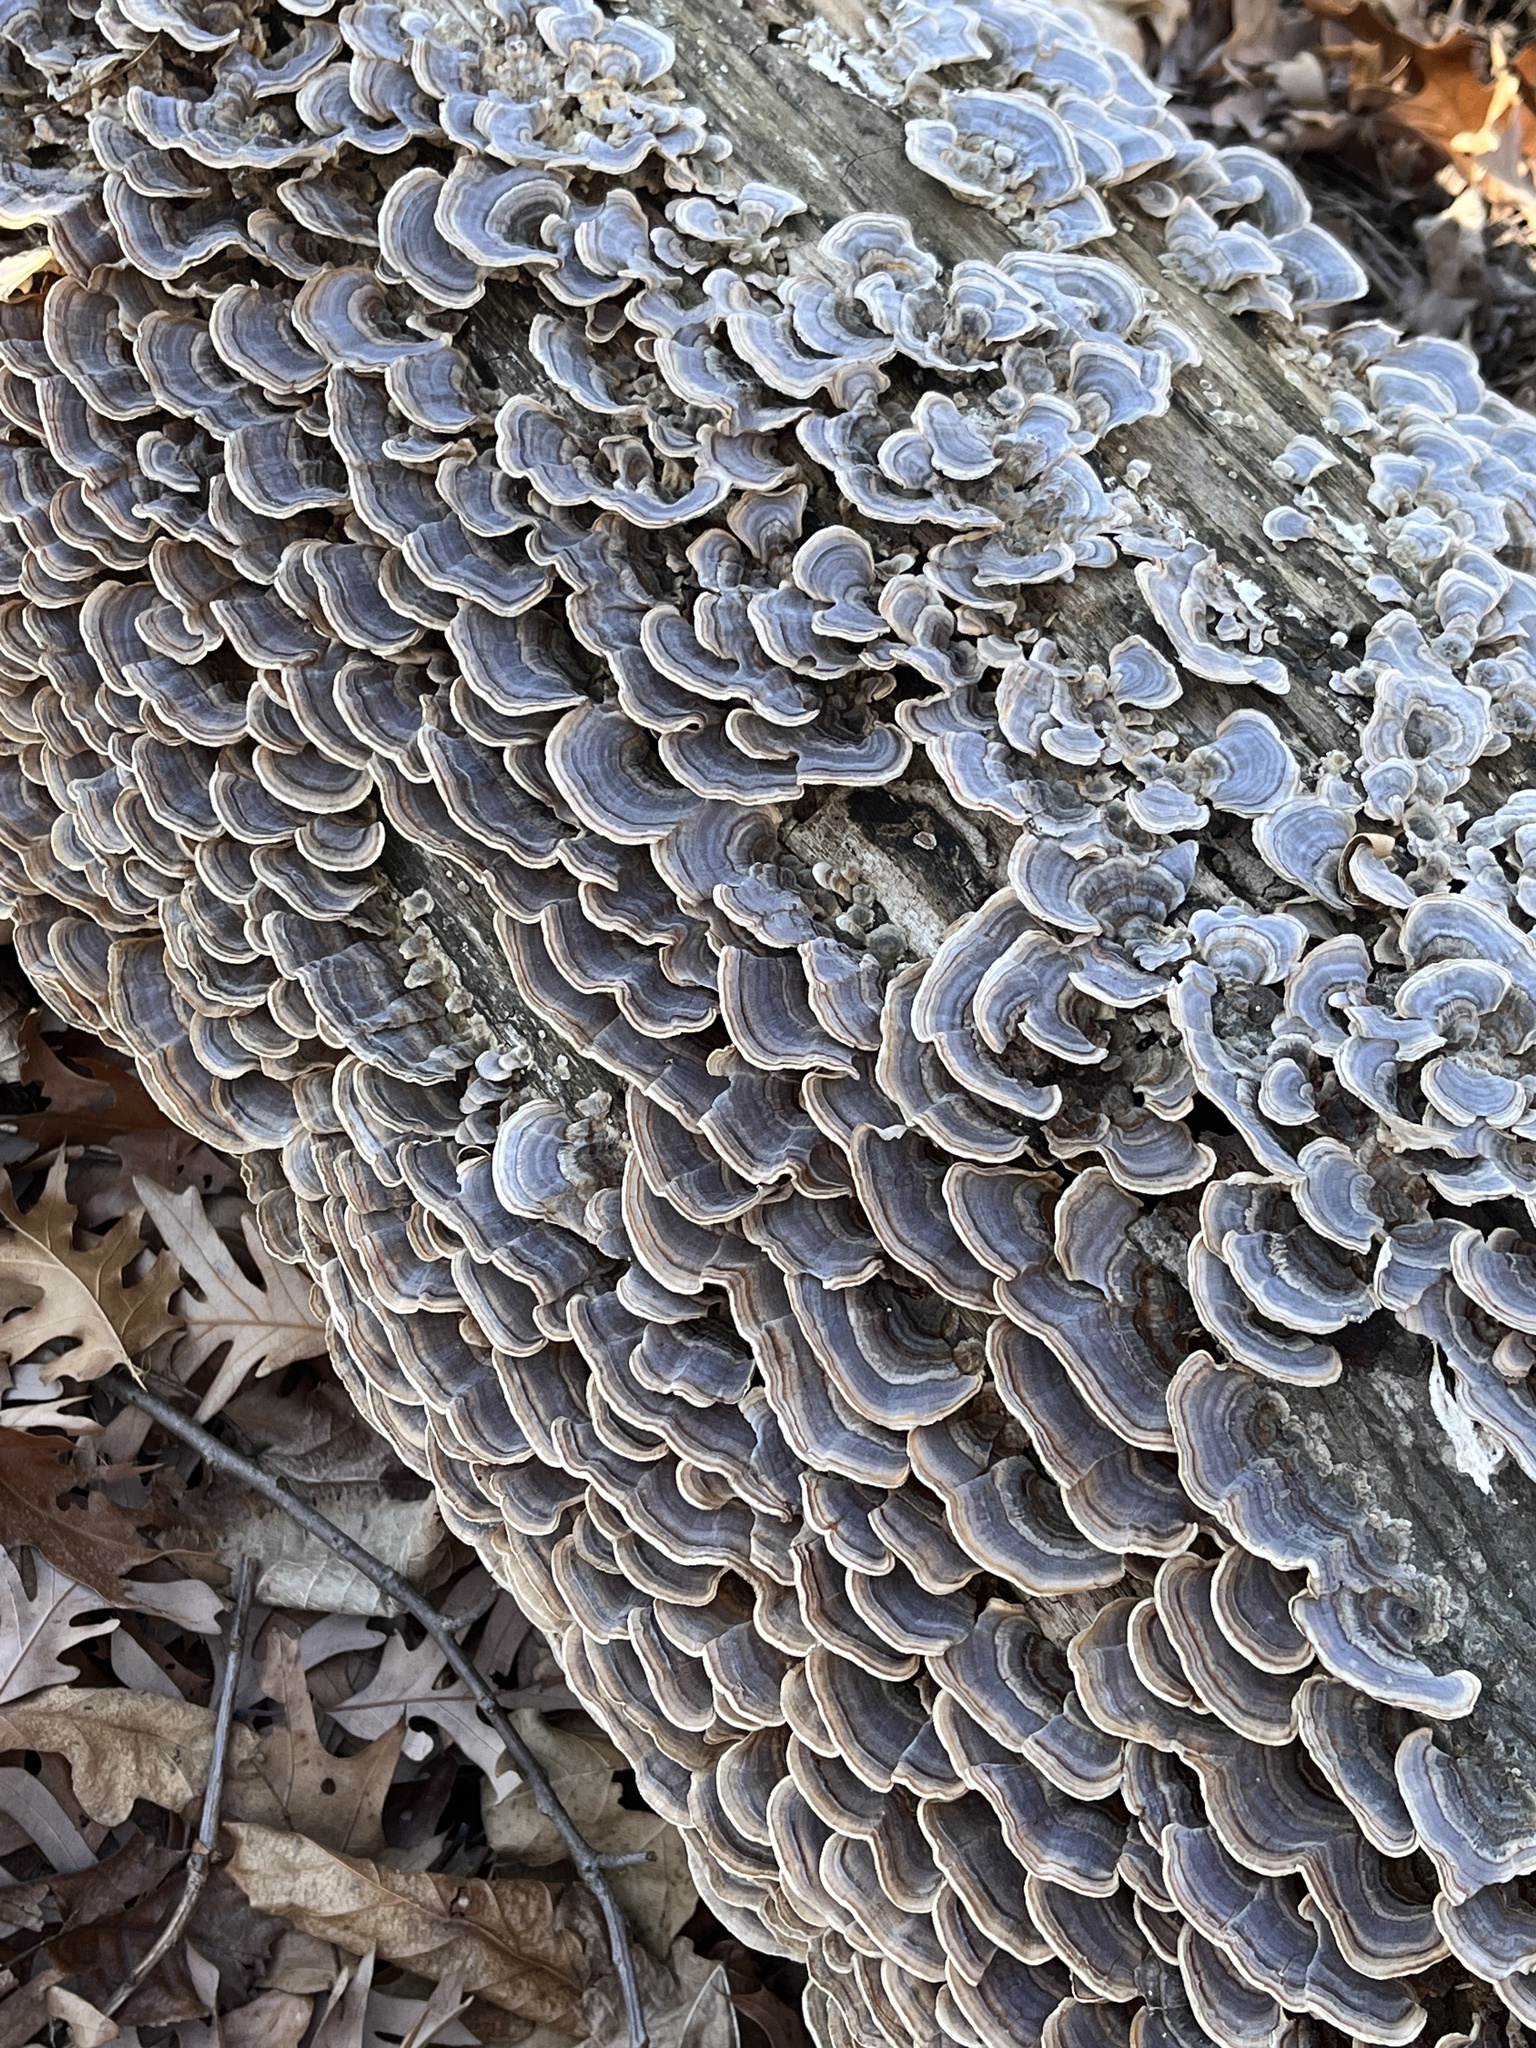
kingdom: Fungi
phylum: Basidiomycota
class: Agaricomycetes
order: Polyporales
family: Polyporaceae
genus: Trametes
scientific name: Trametes versicolor
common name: Turkeytail
